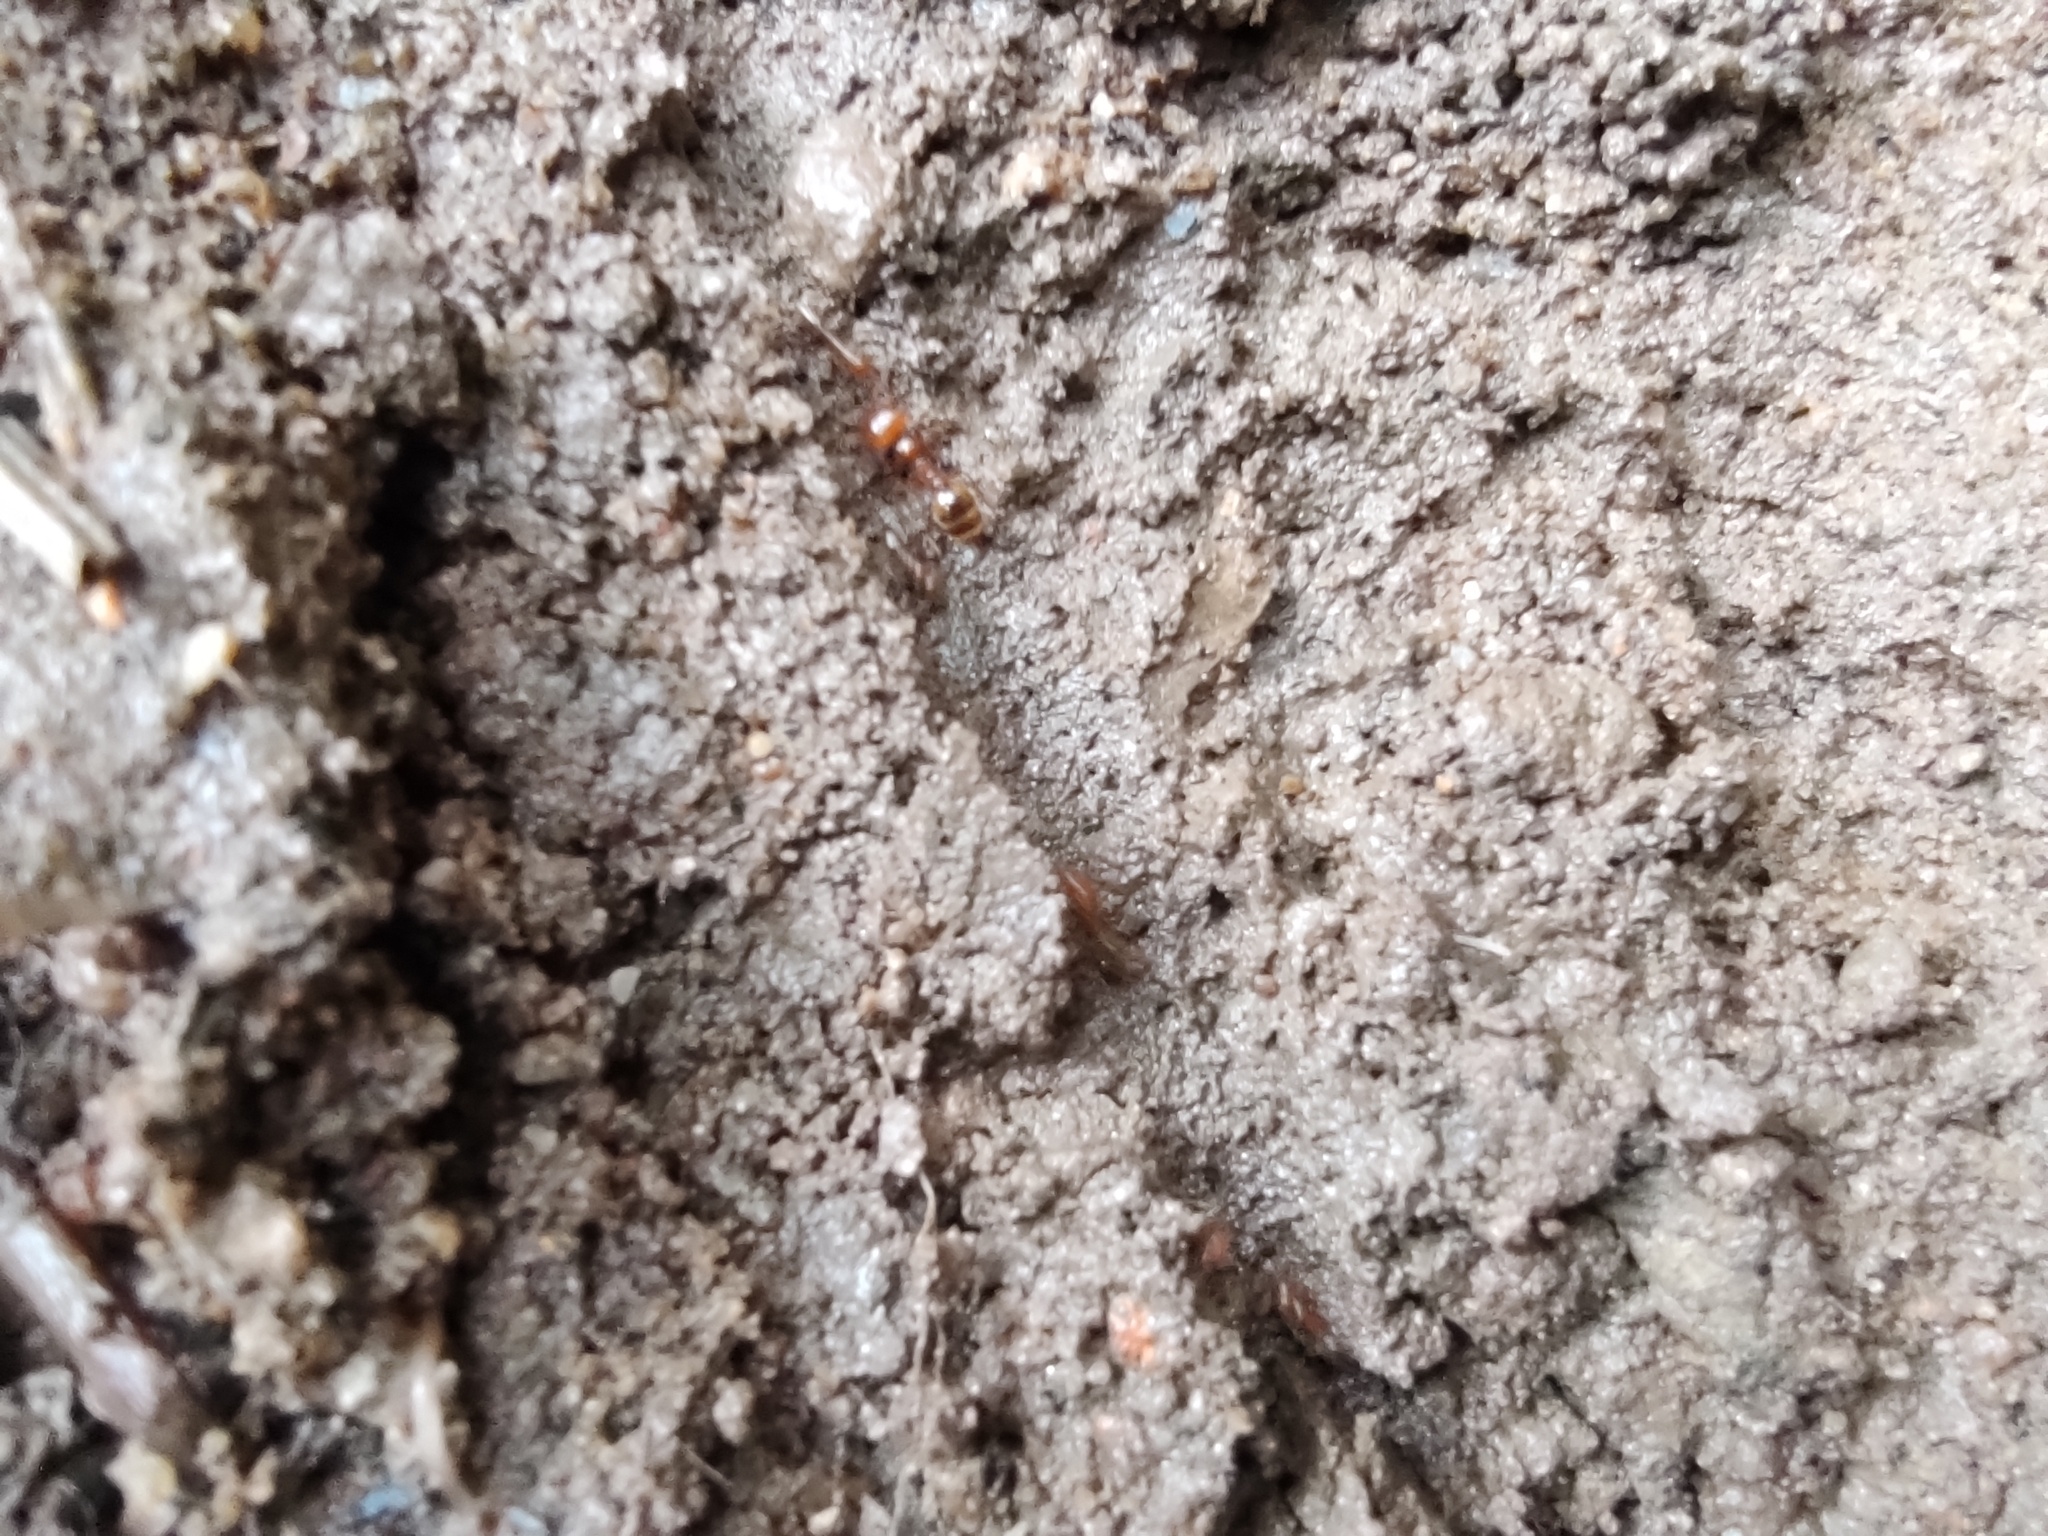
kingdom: Animalia
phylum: Arthropoda
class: Insecta
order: Hymenoptera
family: Formicidae
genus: Solenopsis
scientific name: Solenopsis geminata
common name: Tropical fire ant
